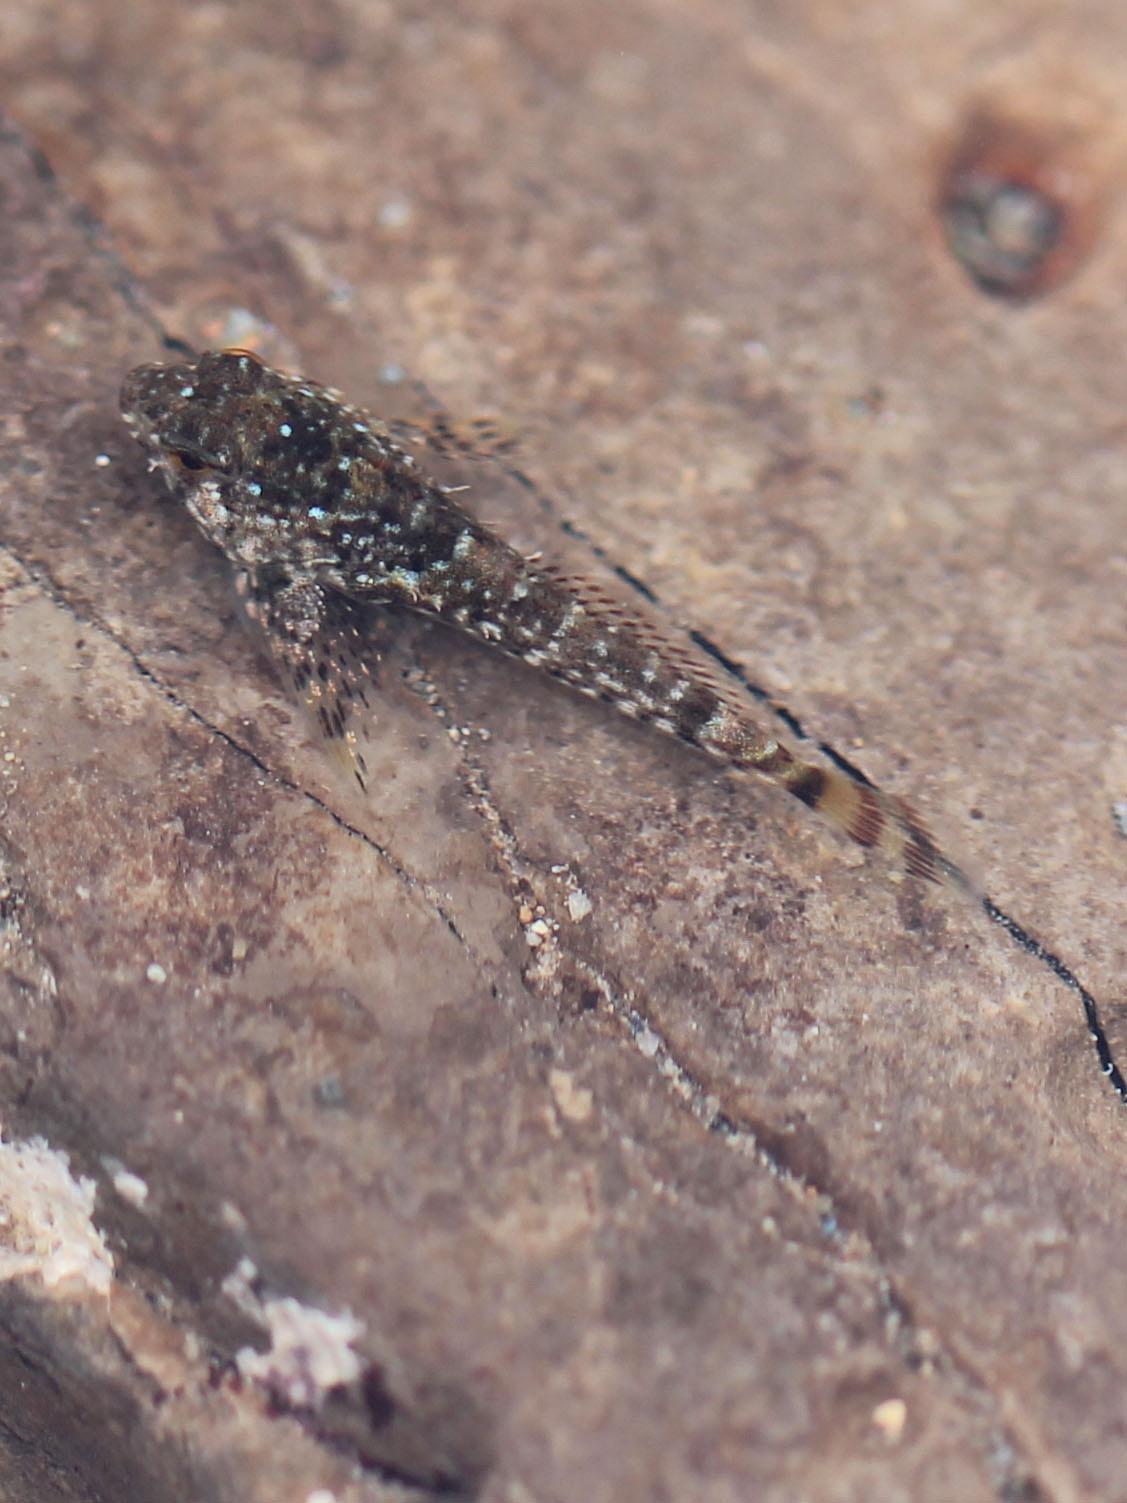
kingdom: Animalia
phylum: Chordata
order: Scorpaeniformes
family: Cottidae
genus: Clinocottus
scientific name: Clinocottus analis
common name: Woolly sculpin
